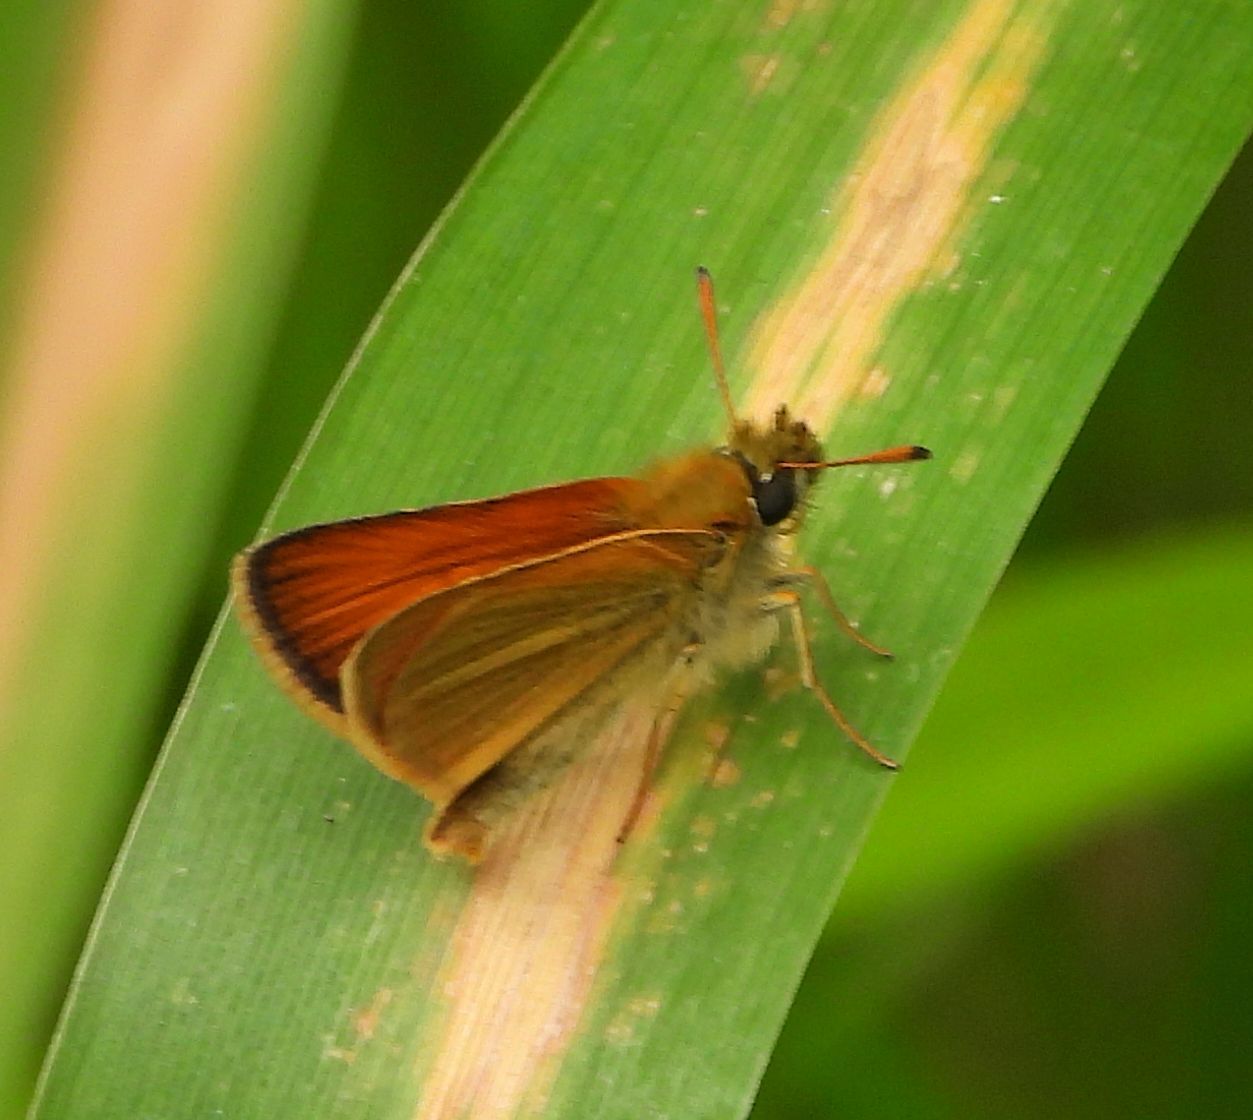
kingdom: Animalia
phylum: Arthropoda
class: Insecta
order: Lepidoptera
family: Hesperiidae
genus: Thymelicus
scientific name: Thymelicus lineola
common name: Essex skipper
